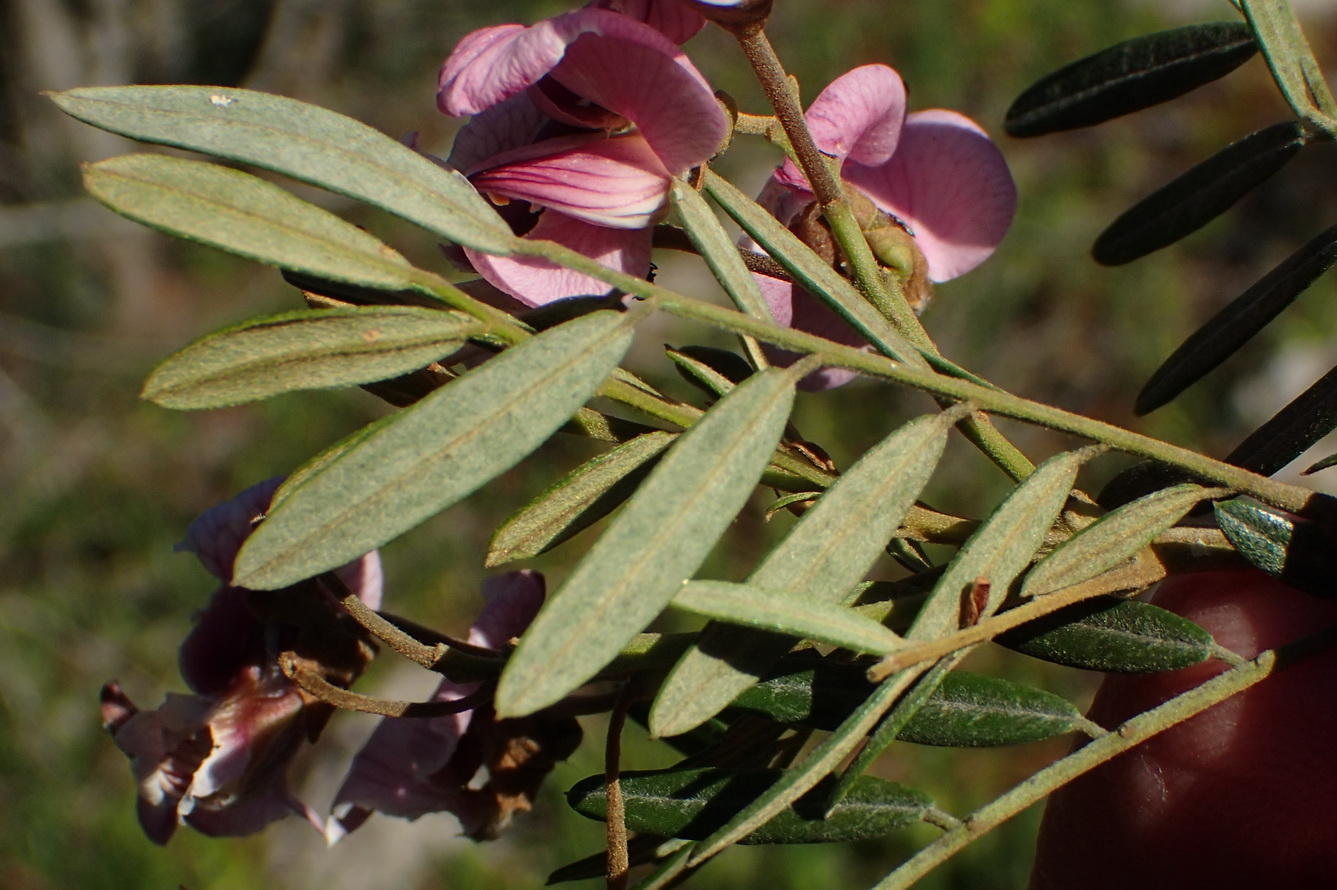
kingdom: Plantae
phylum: Tracheophyta
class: Magnoliopsida
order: Fabales
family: Fabaceae
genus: Virgilia
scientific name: Virgilia oroboides
